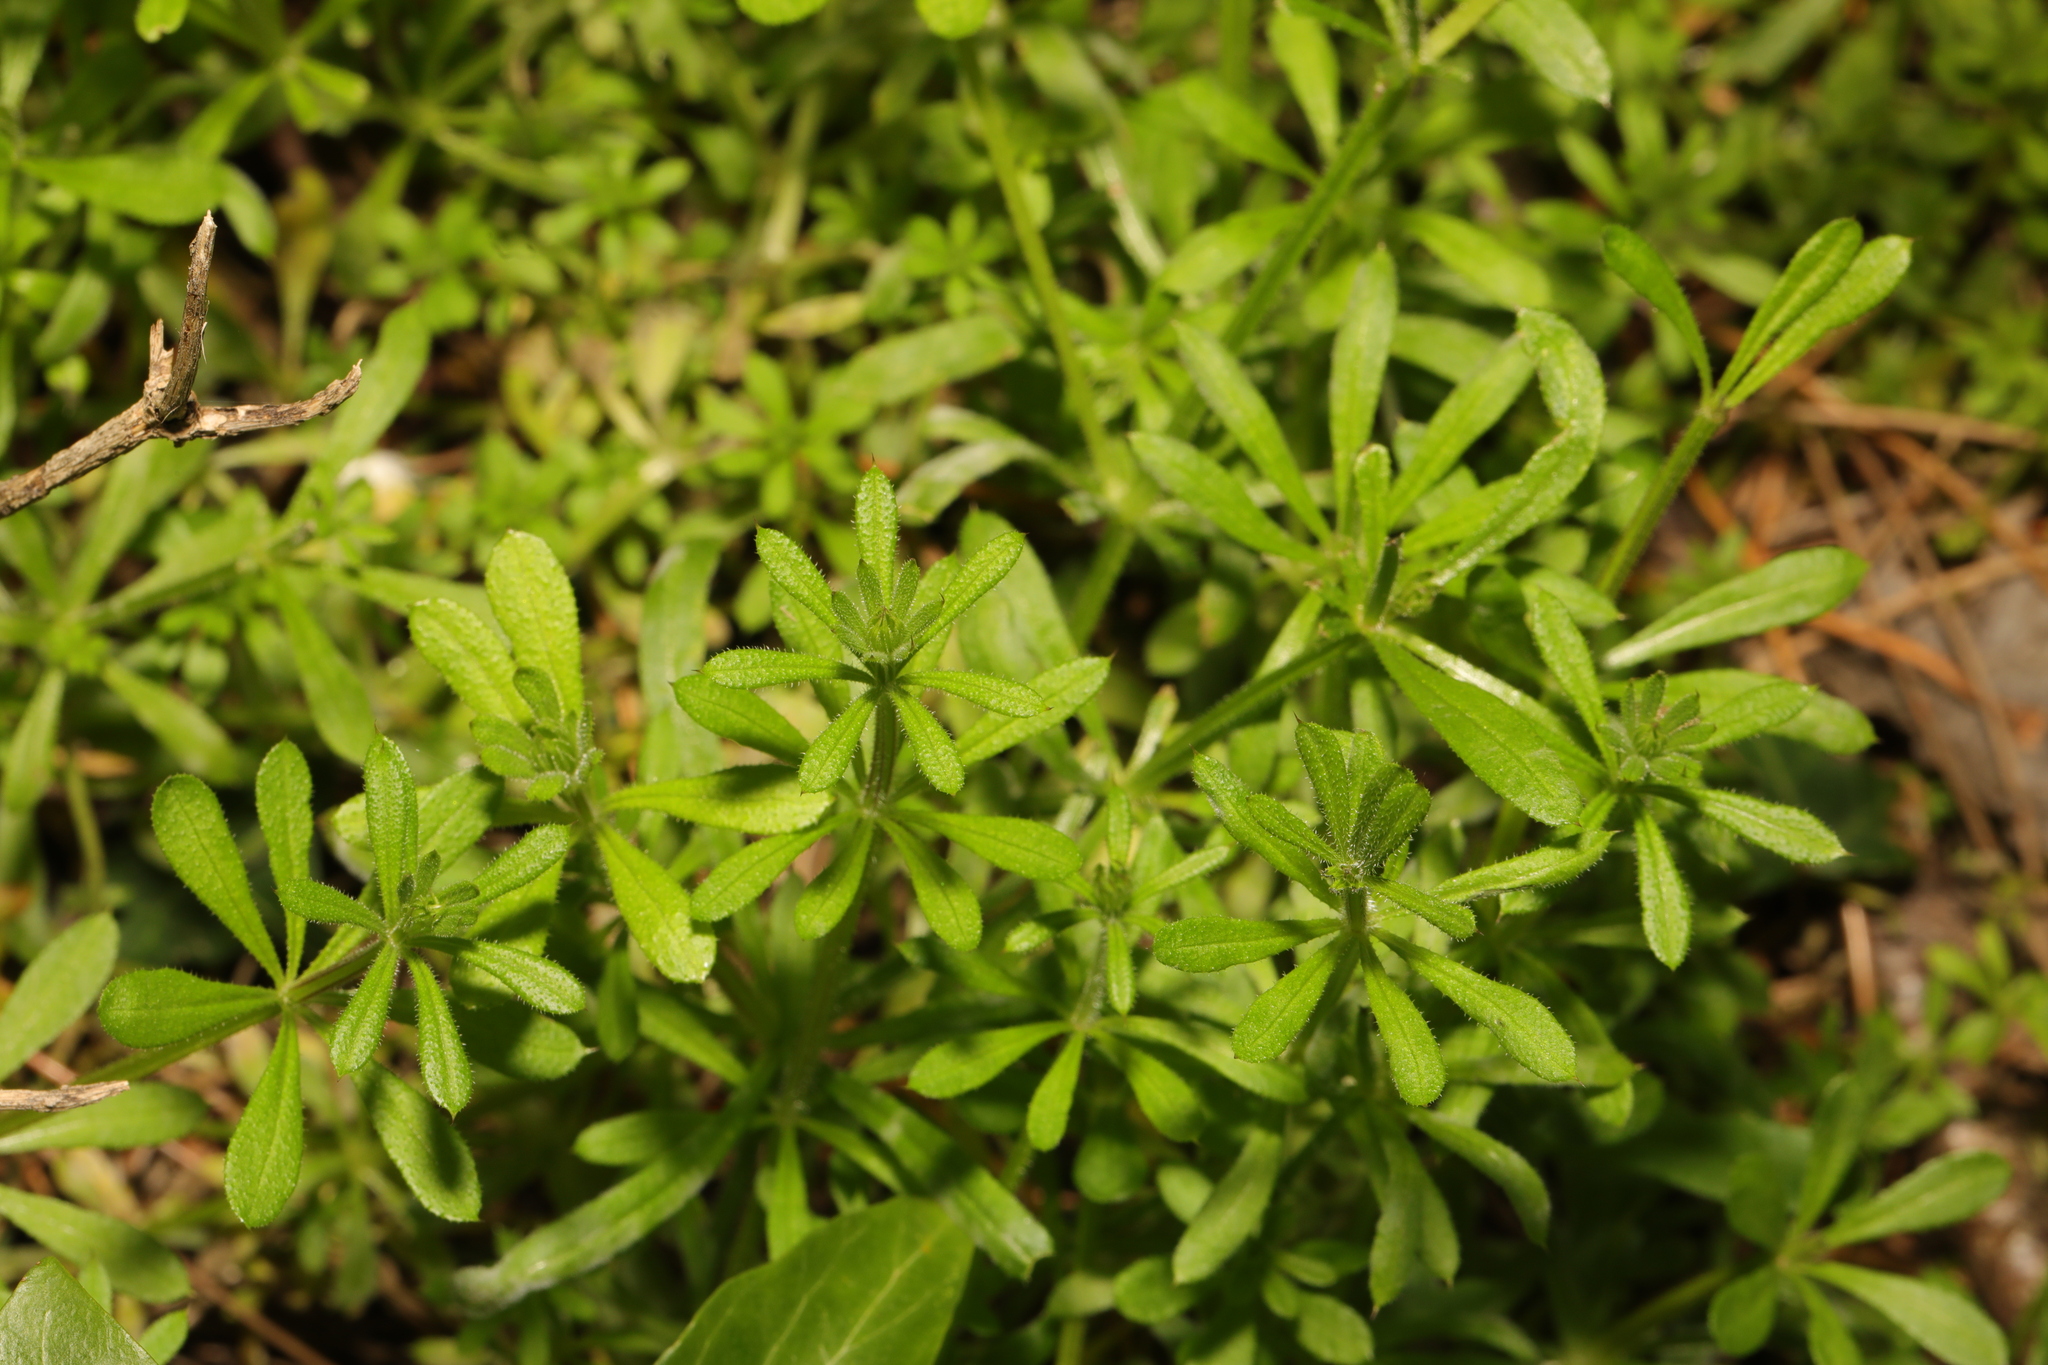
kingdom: Plantae
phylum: Tracheophyta
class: Magnoliopsida
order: Gentianales
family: Rubiaceae
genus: Galium
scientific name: Galium aparine
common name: Cleavers
